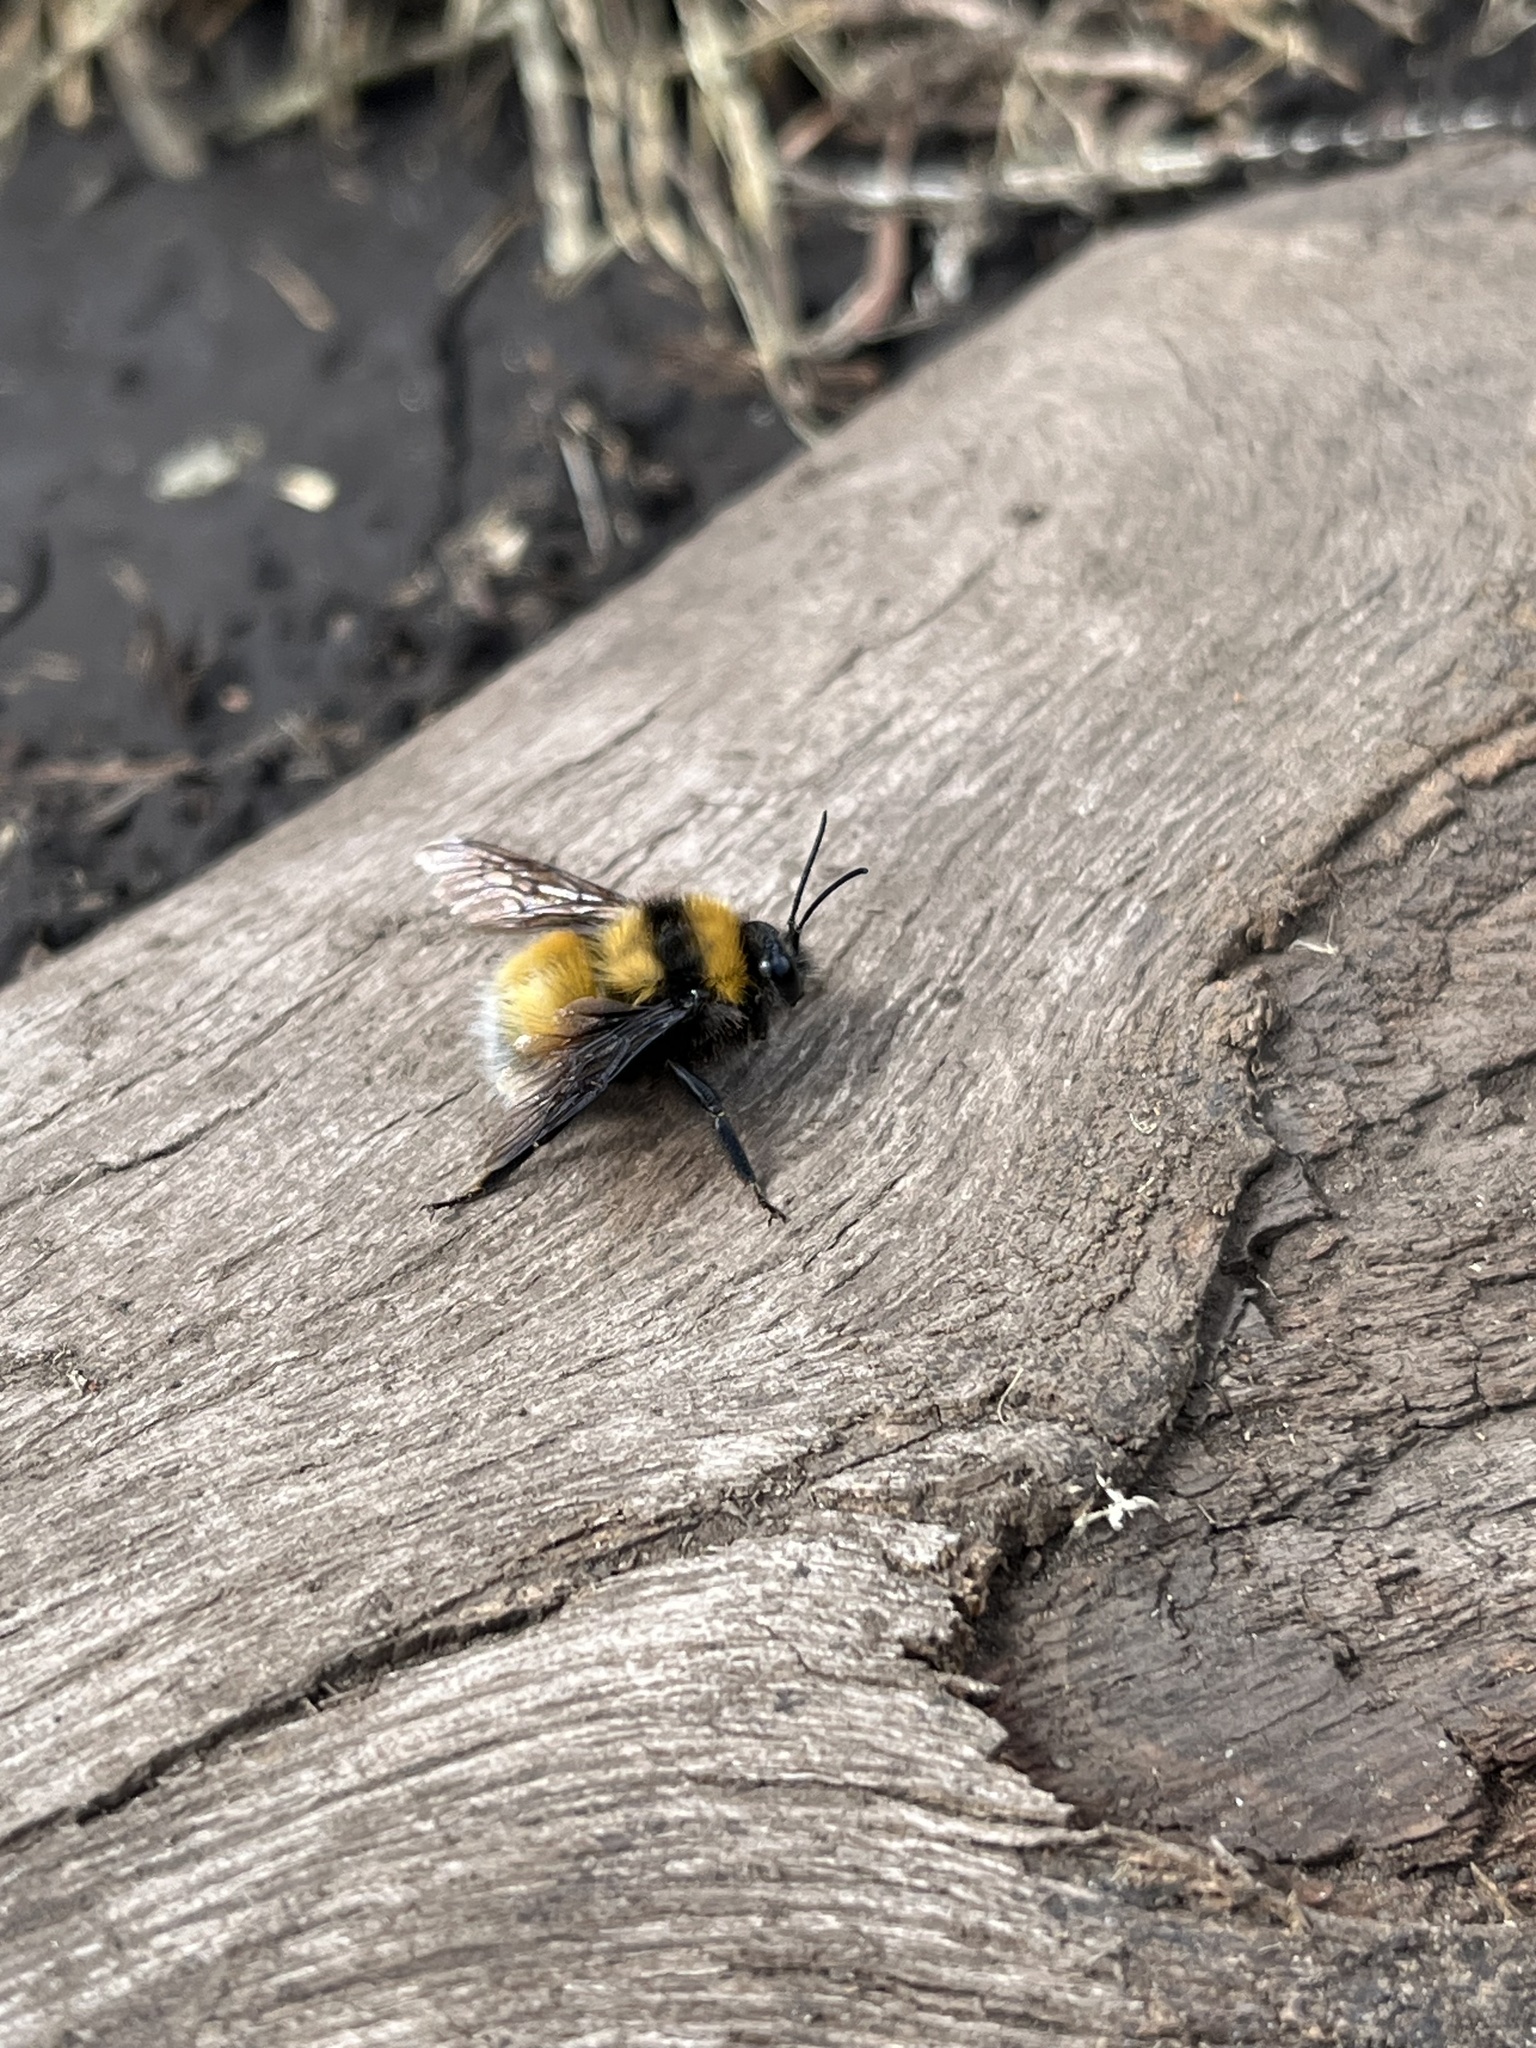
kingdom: Animalia
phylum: Arthropoda
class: Insecta
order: Hymenoptera
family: Apidae
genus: Bombus
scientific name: Bombus hortulanus
